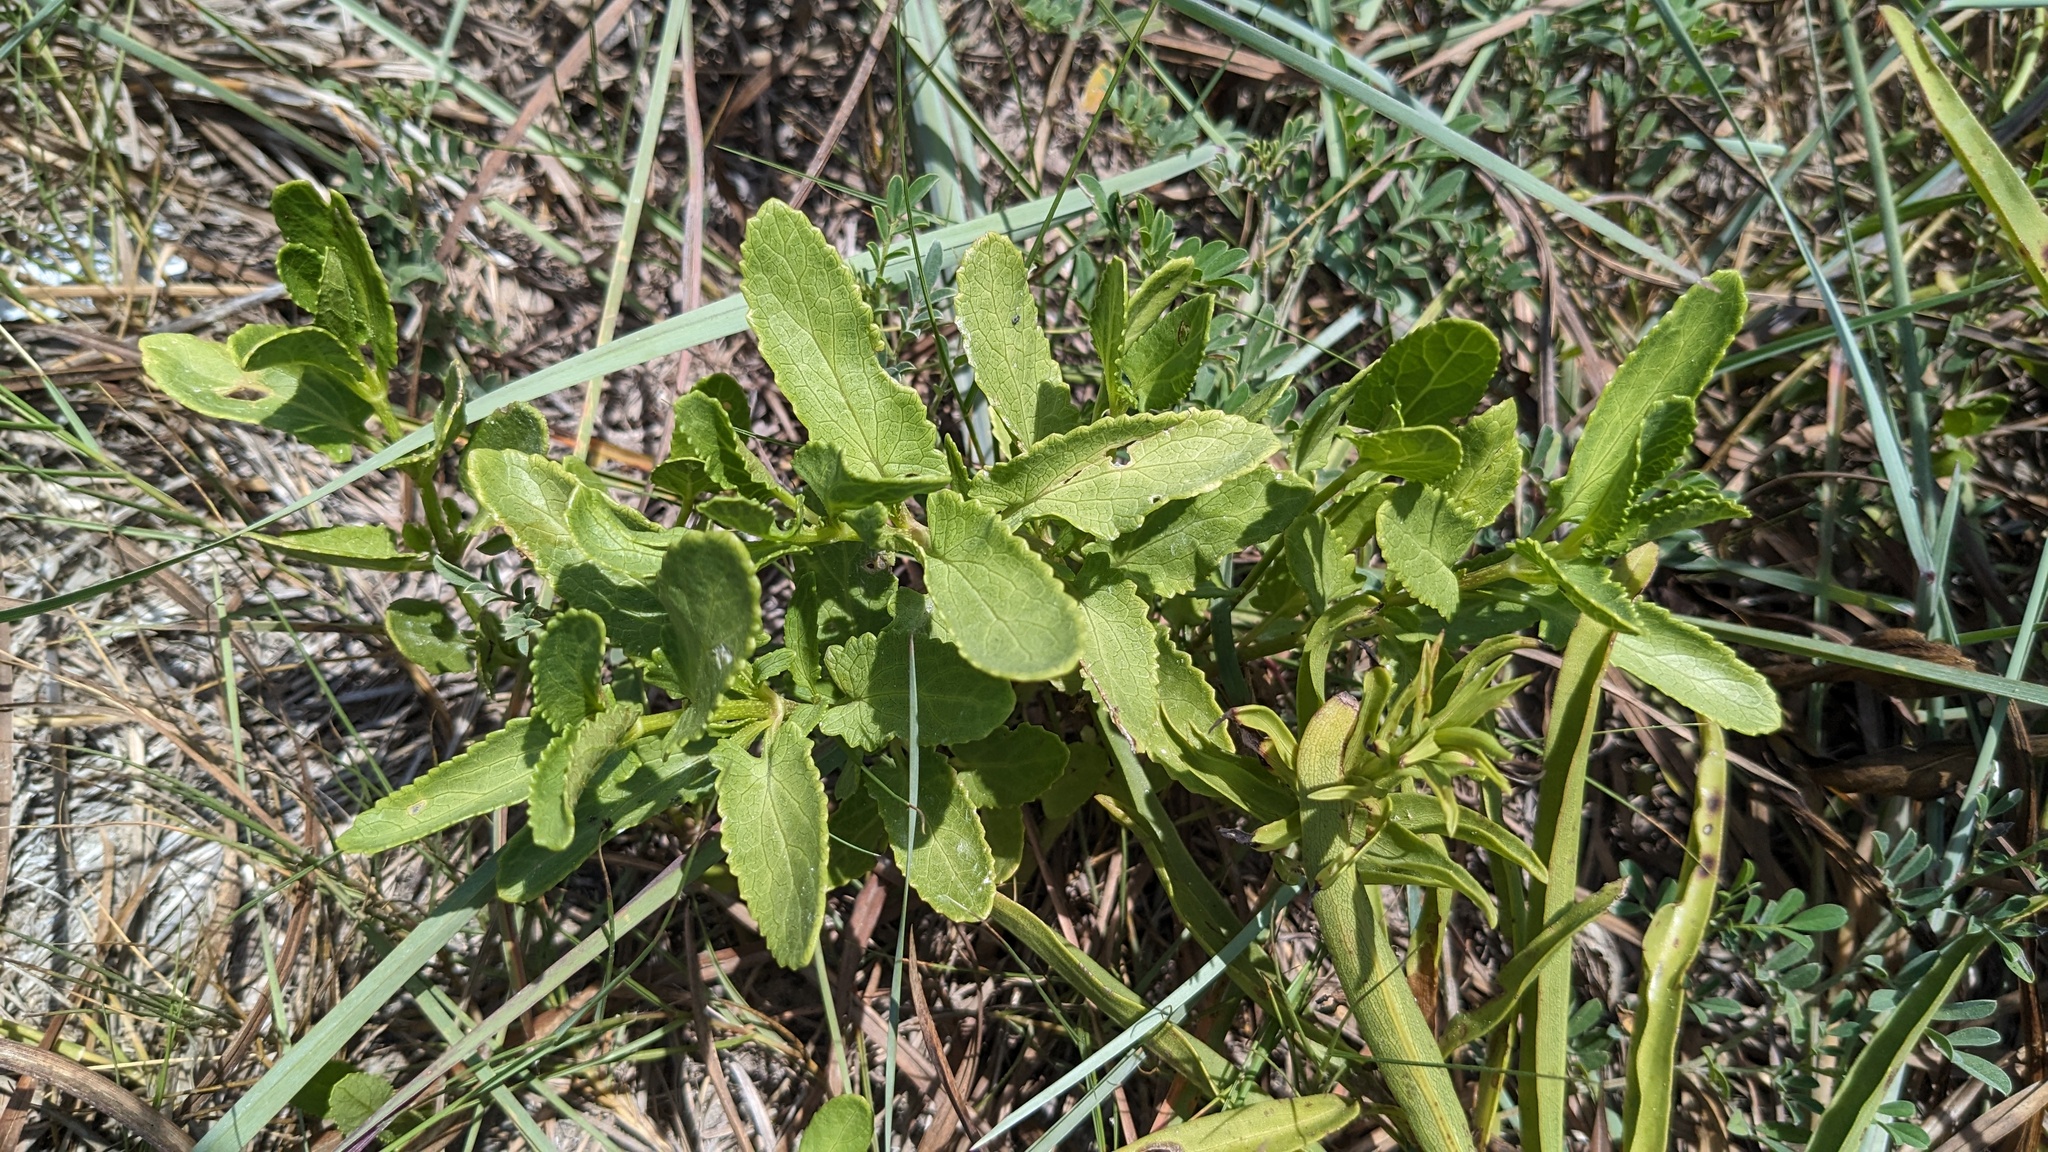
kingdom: Plantae
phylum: Tracheophyta
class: Magnoliopsida
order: Asterales
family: Asteraceae
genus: Conoclinium
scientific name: Conoclinium betonicifolium
